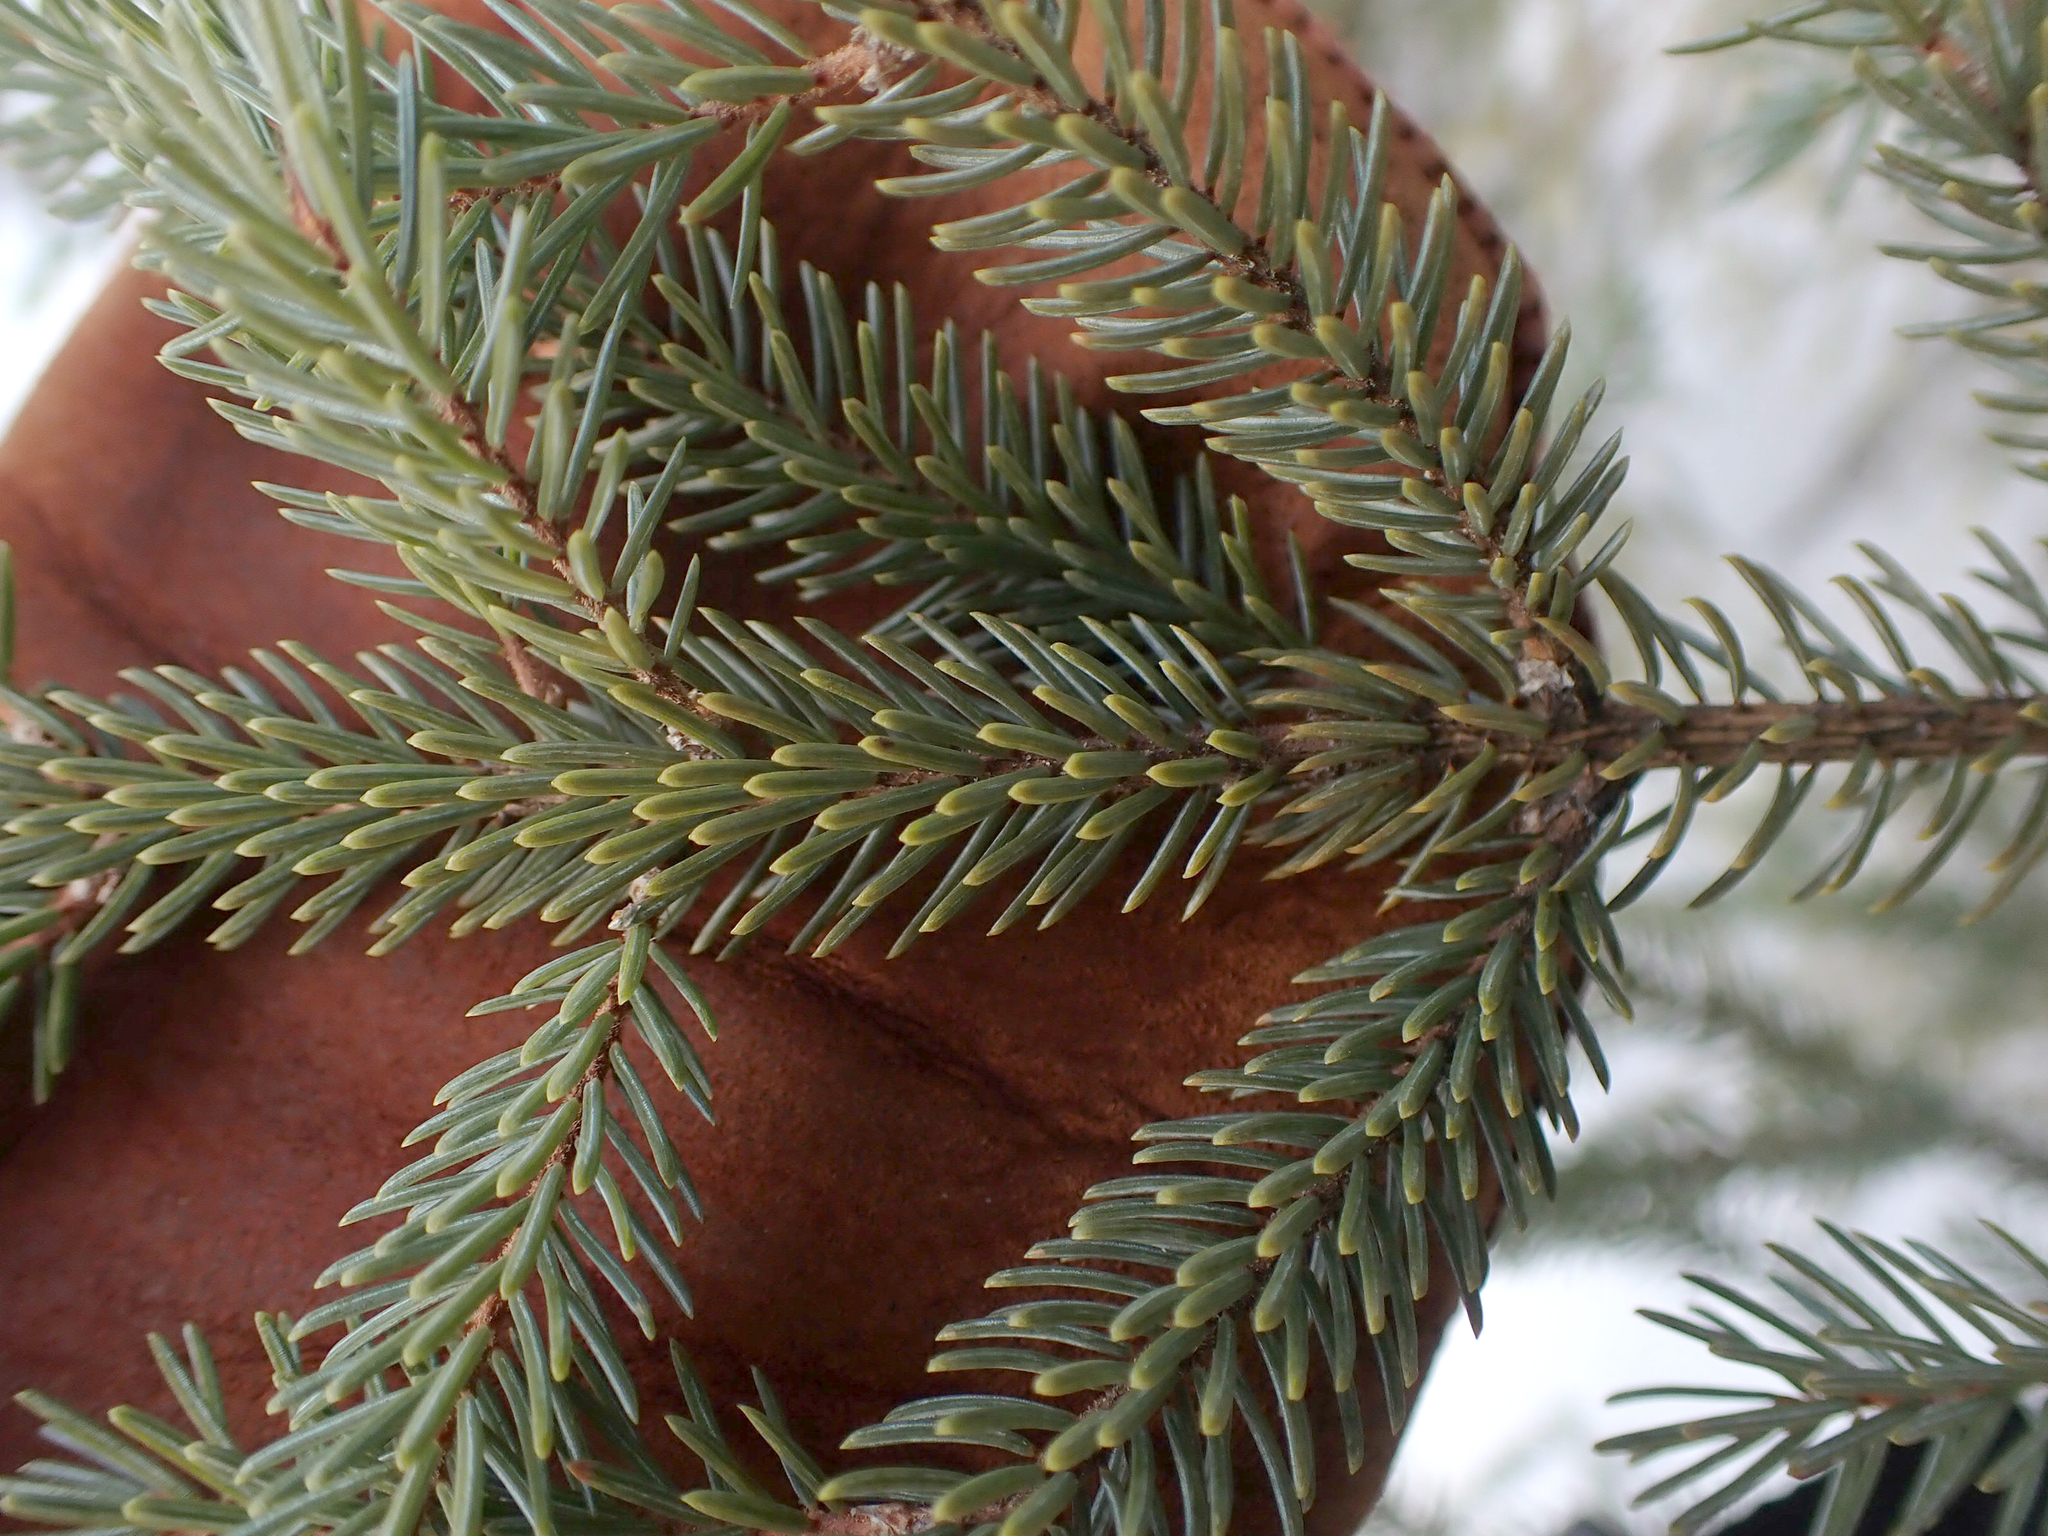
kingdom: Plantae
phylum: Tracheophyta
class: Pinopsida
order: Pinales
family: Pinaceae
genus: Picea
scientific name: Picea mariana
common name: Black spruce
